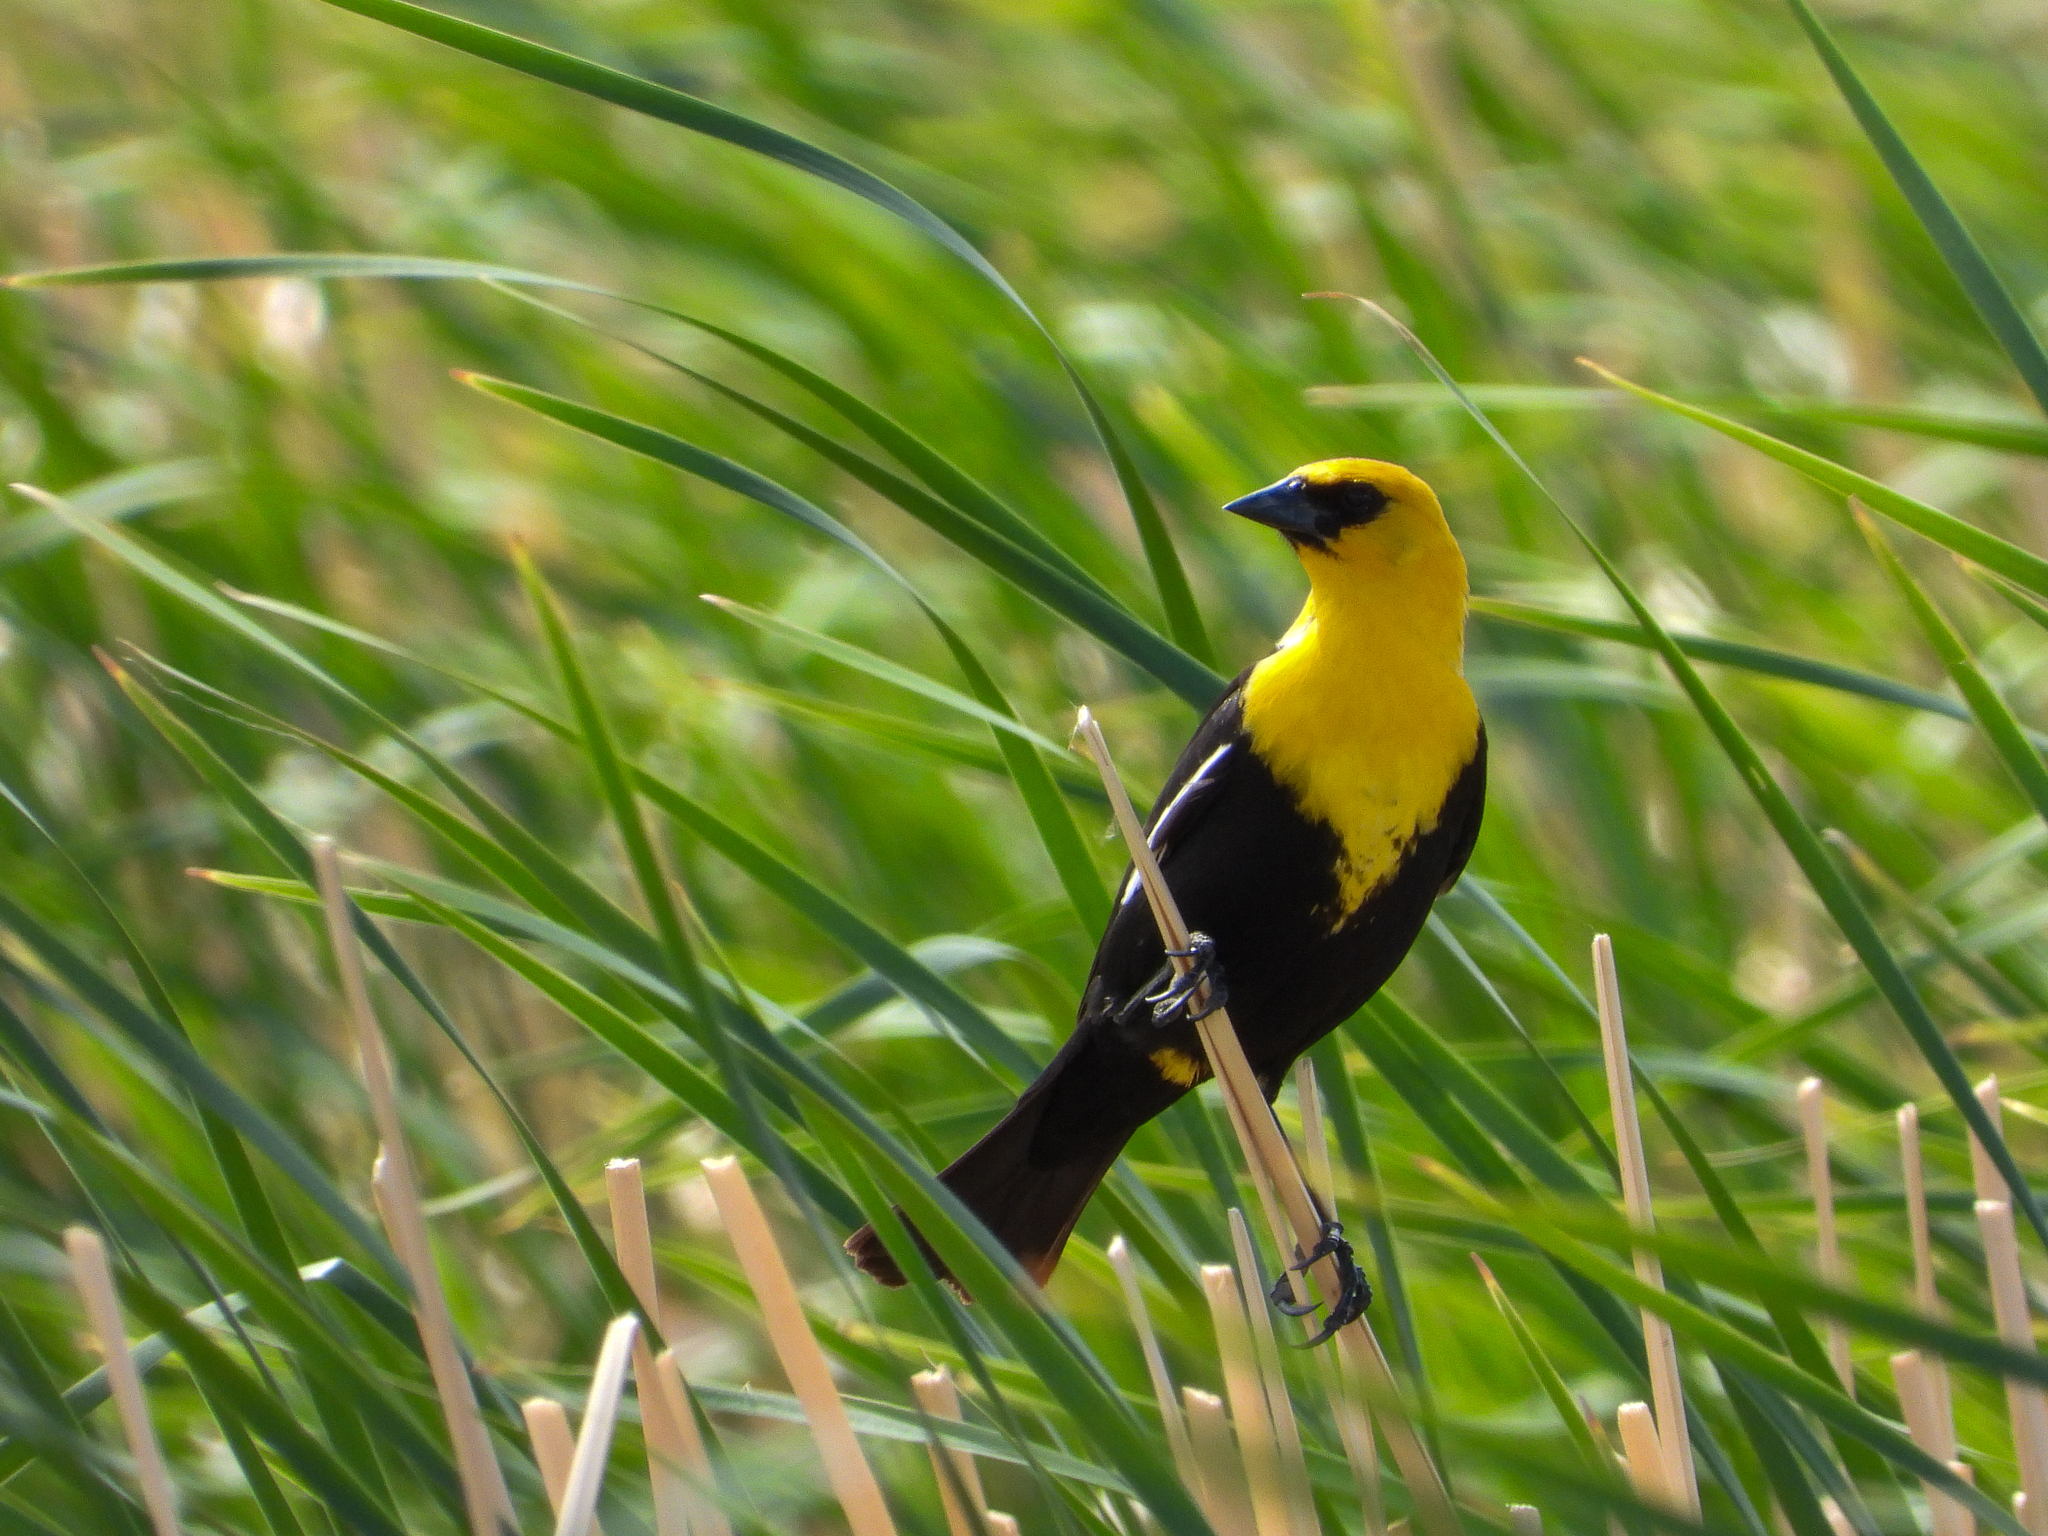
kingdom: Animalia
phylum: Chordata
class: Aves
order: Passeriformes
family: Icteridae
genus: Xanthocephalus
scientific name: Xanthocephalus xanthocephalus
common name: Yellow-headed blackbird
